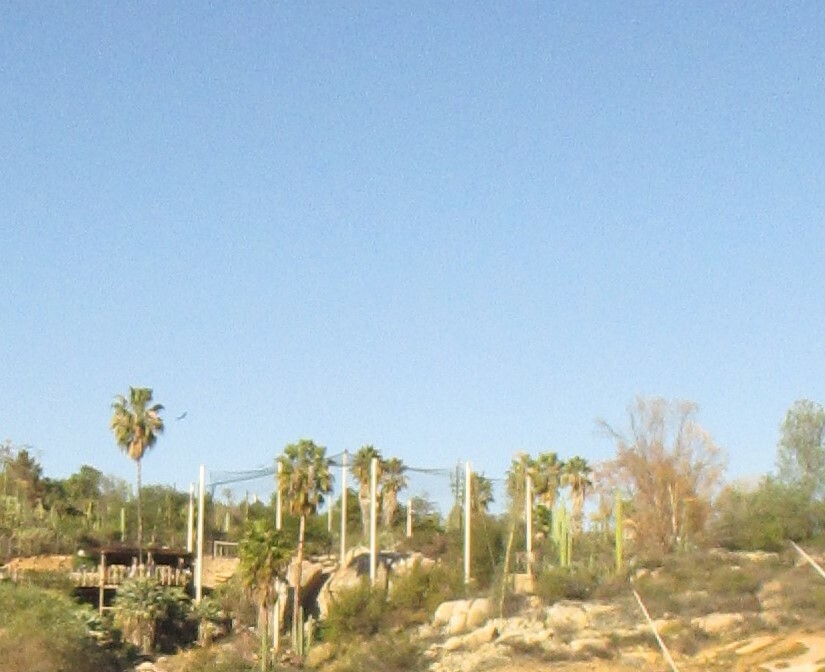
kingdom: Plantae
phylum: Tracheophyta
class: Liliopsida
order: Arecales
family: Arecaceae
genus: Washingtonia
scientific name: Washingtonia robusta
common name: Mexican fan palm
